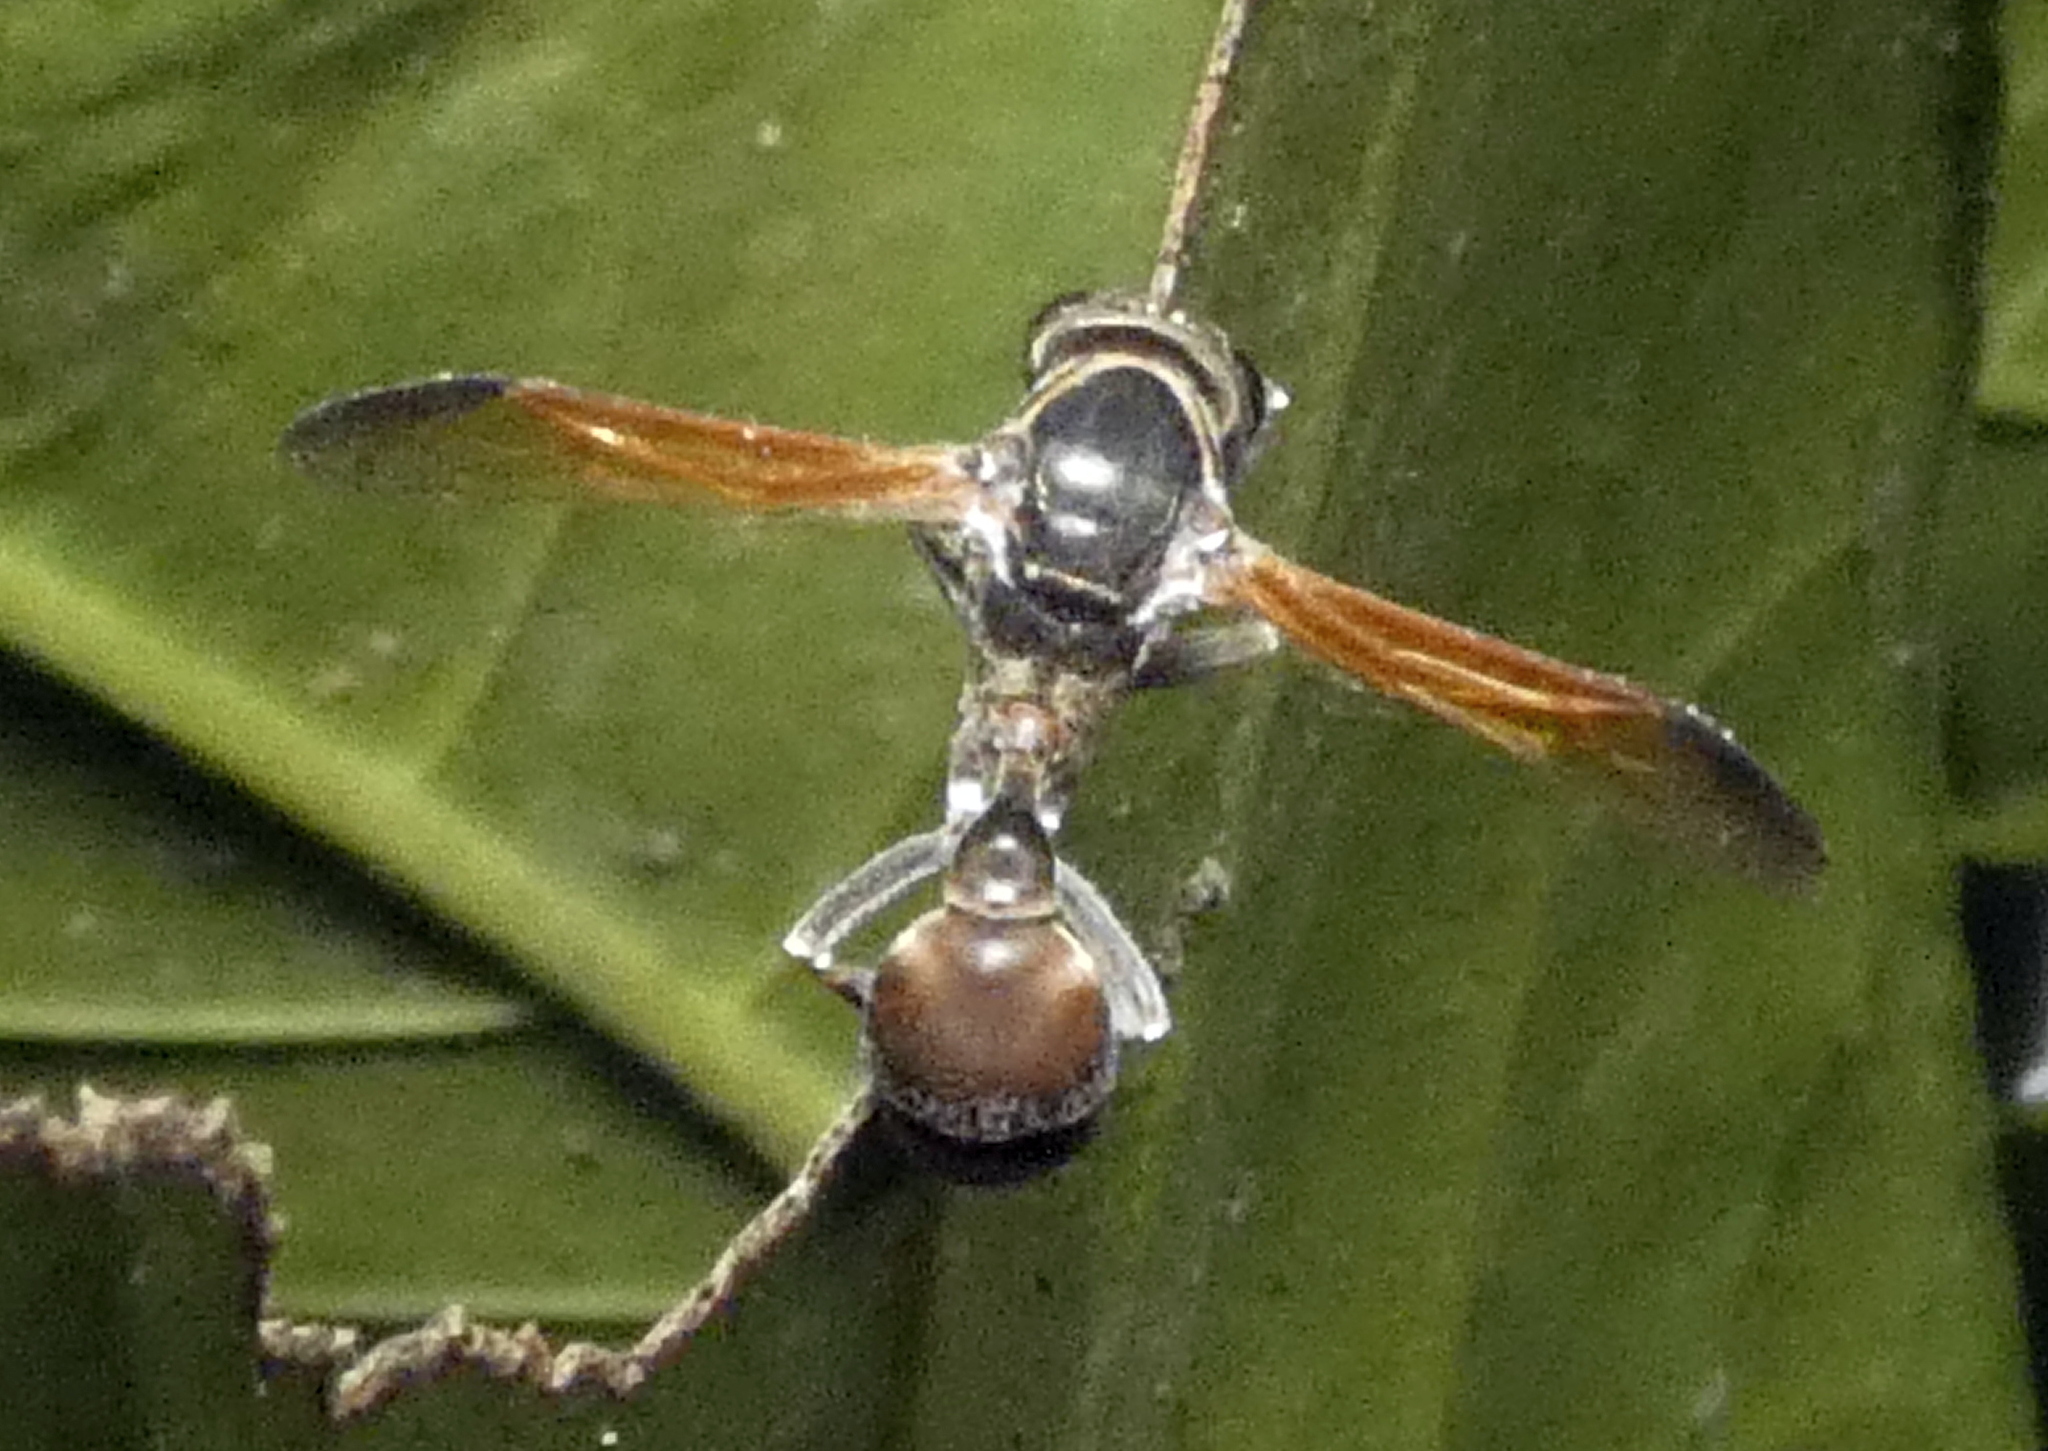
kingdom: Animalia
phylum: Arthropoda
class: Insecta
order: Hymenoptera
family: Eumenidae
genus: Polybia
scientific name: Polybia rejecta
